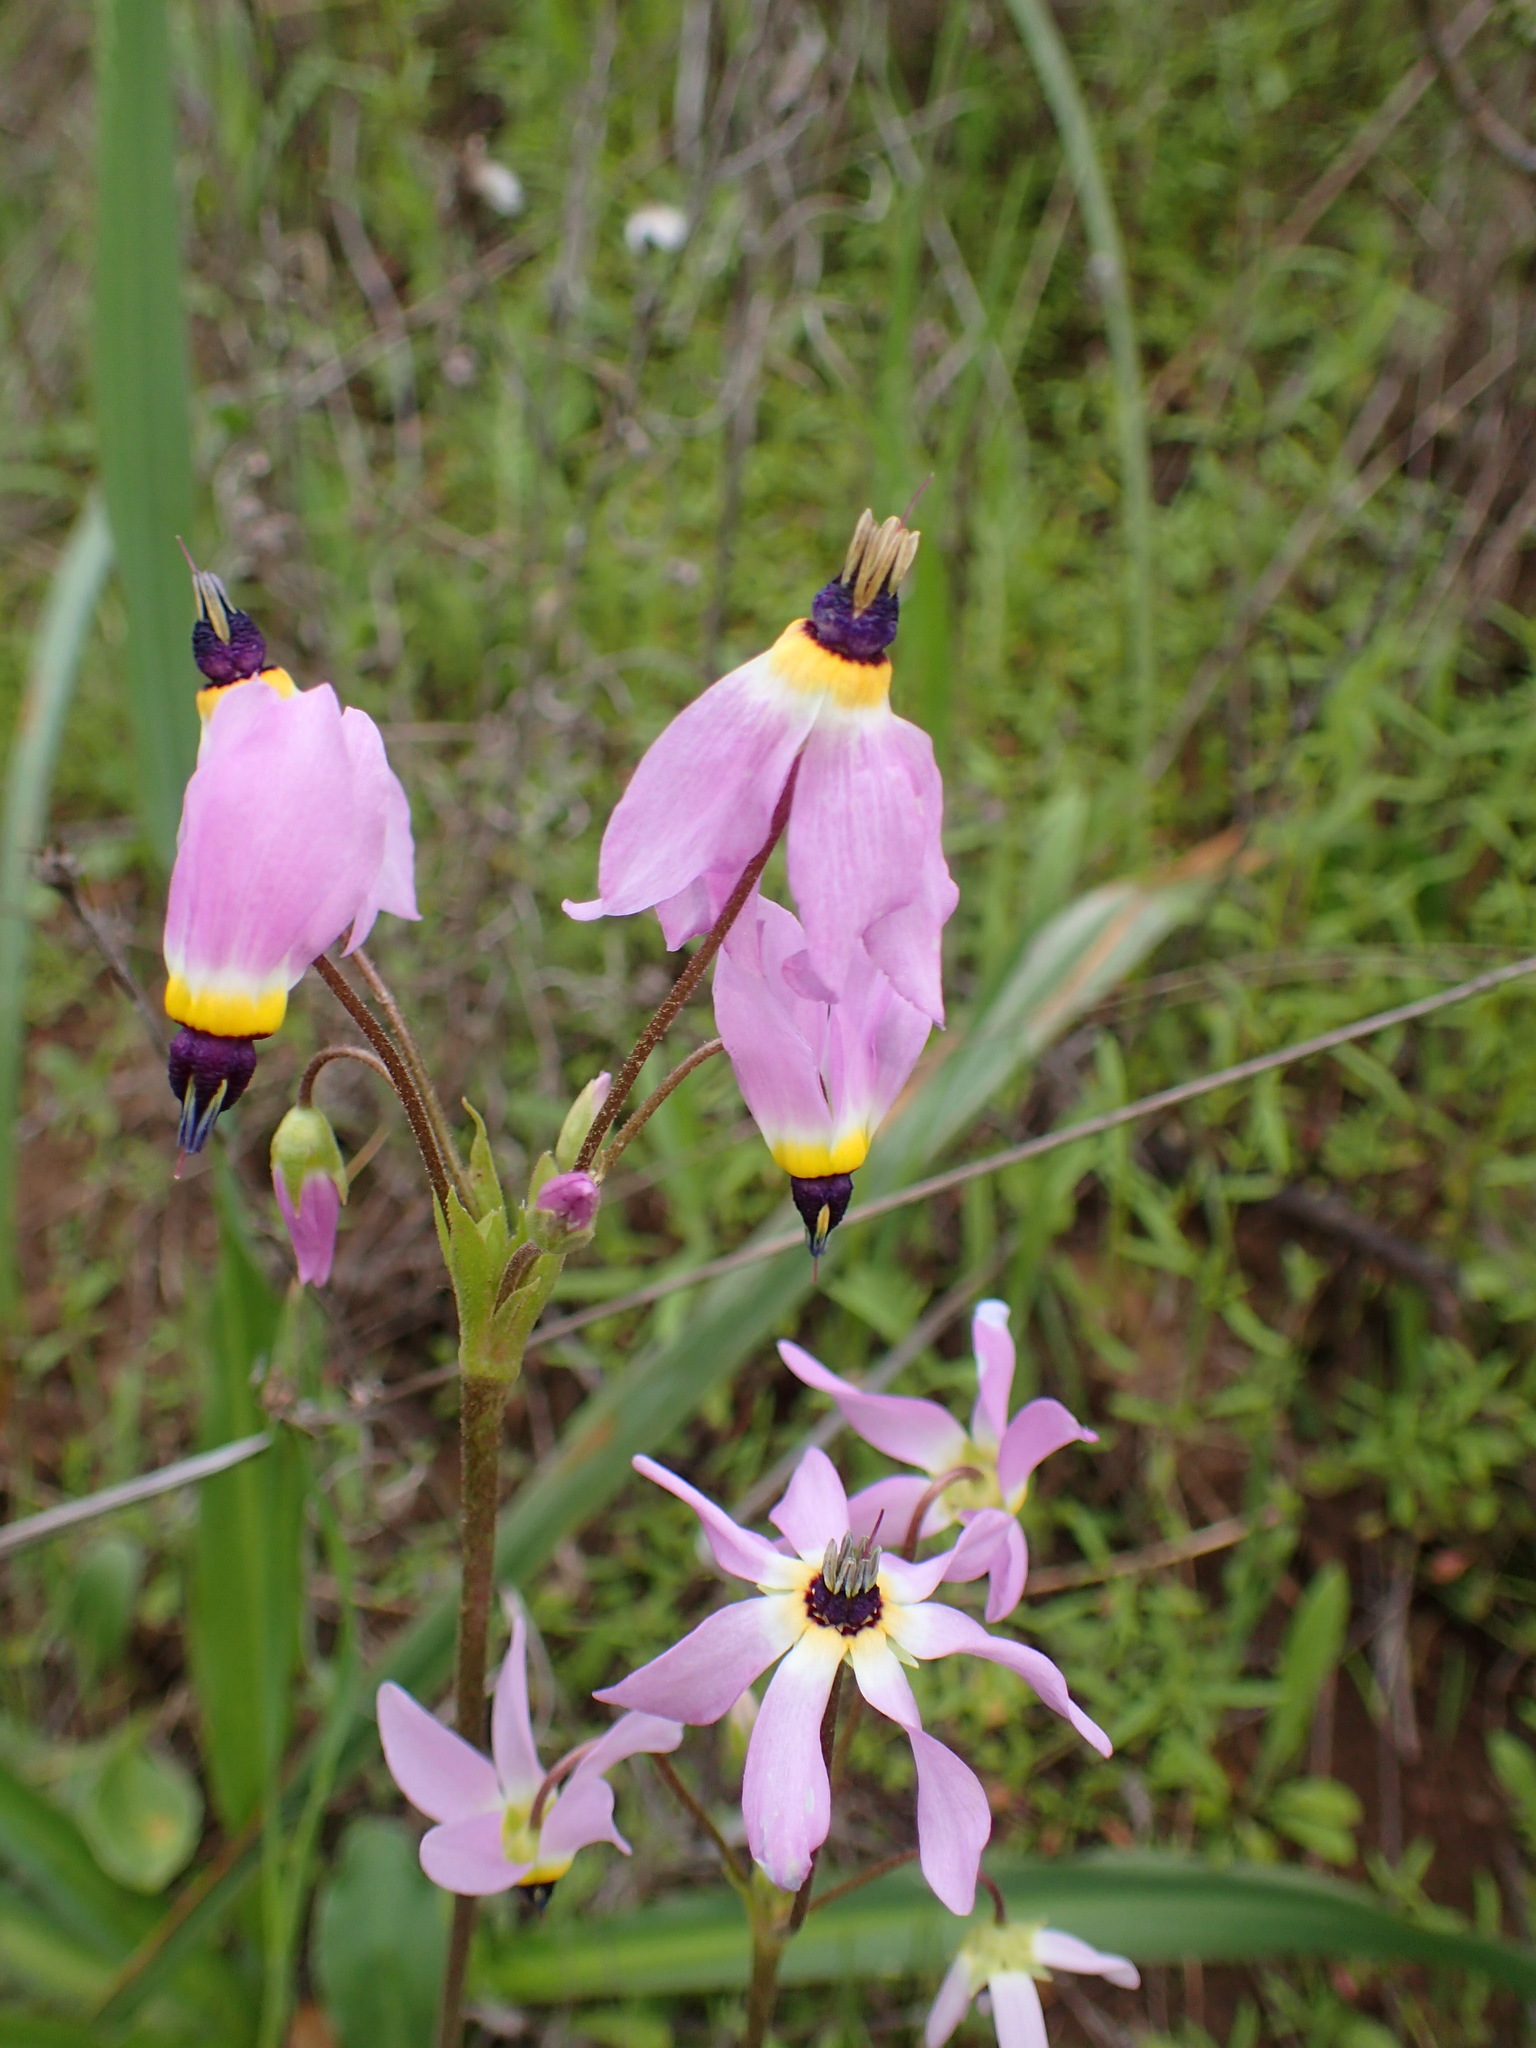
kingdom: Plantae
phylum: Tracheophyta
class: Magnoliopsida
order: Ericales
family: Primulaceae
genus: Dodecatheon
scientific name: Dodecatheon clevelandii
